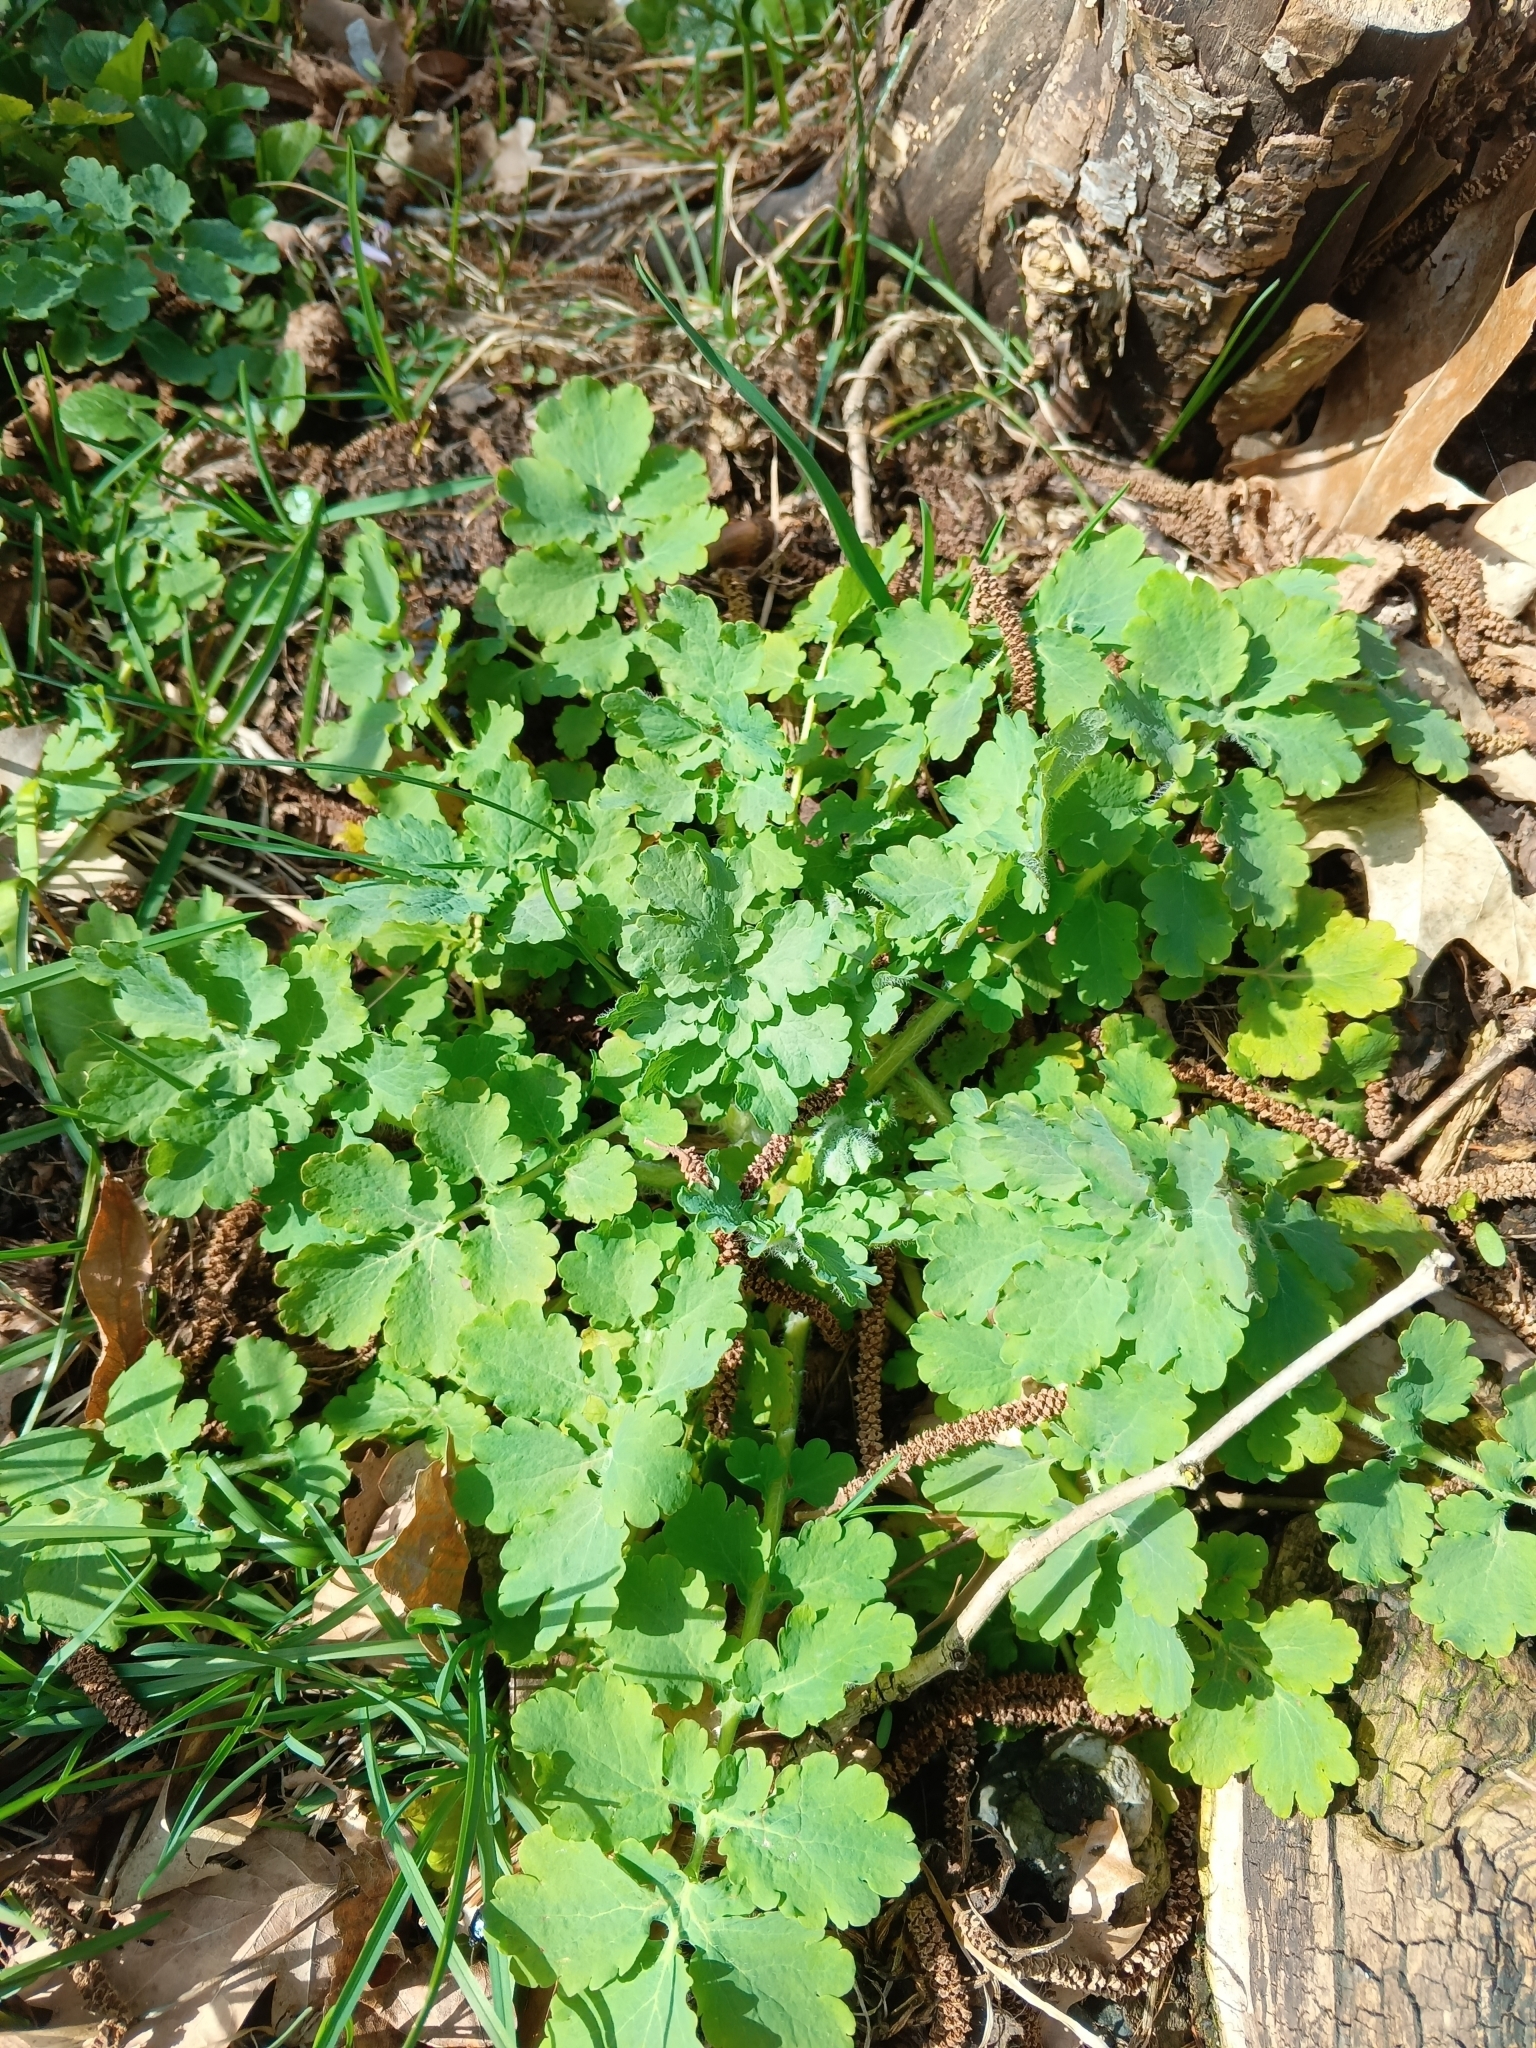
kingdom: Plantae
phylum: Tracheophyta
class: Magnoliopsida
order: Ranunculales
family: Papaveraceae
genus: Chelidonium
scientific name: Chelidonium majus
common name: Greater celandine
